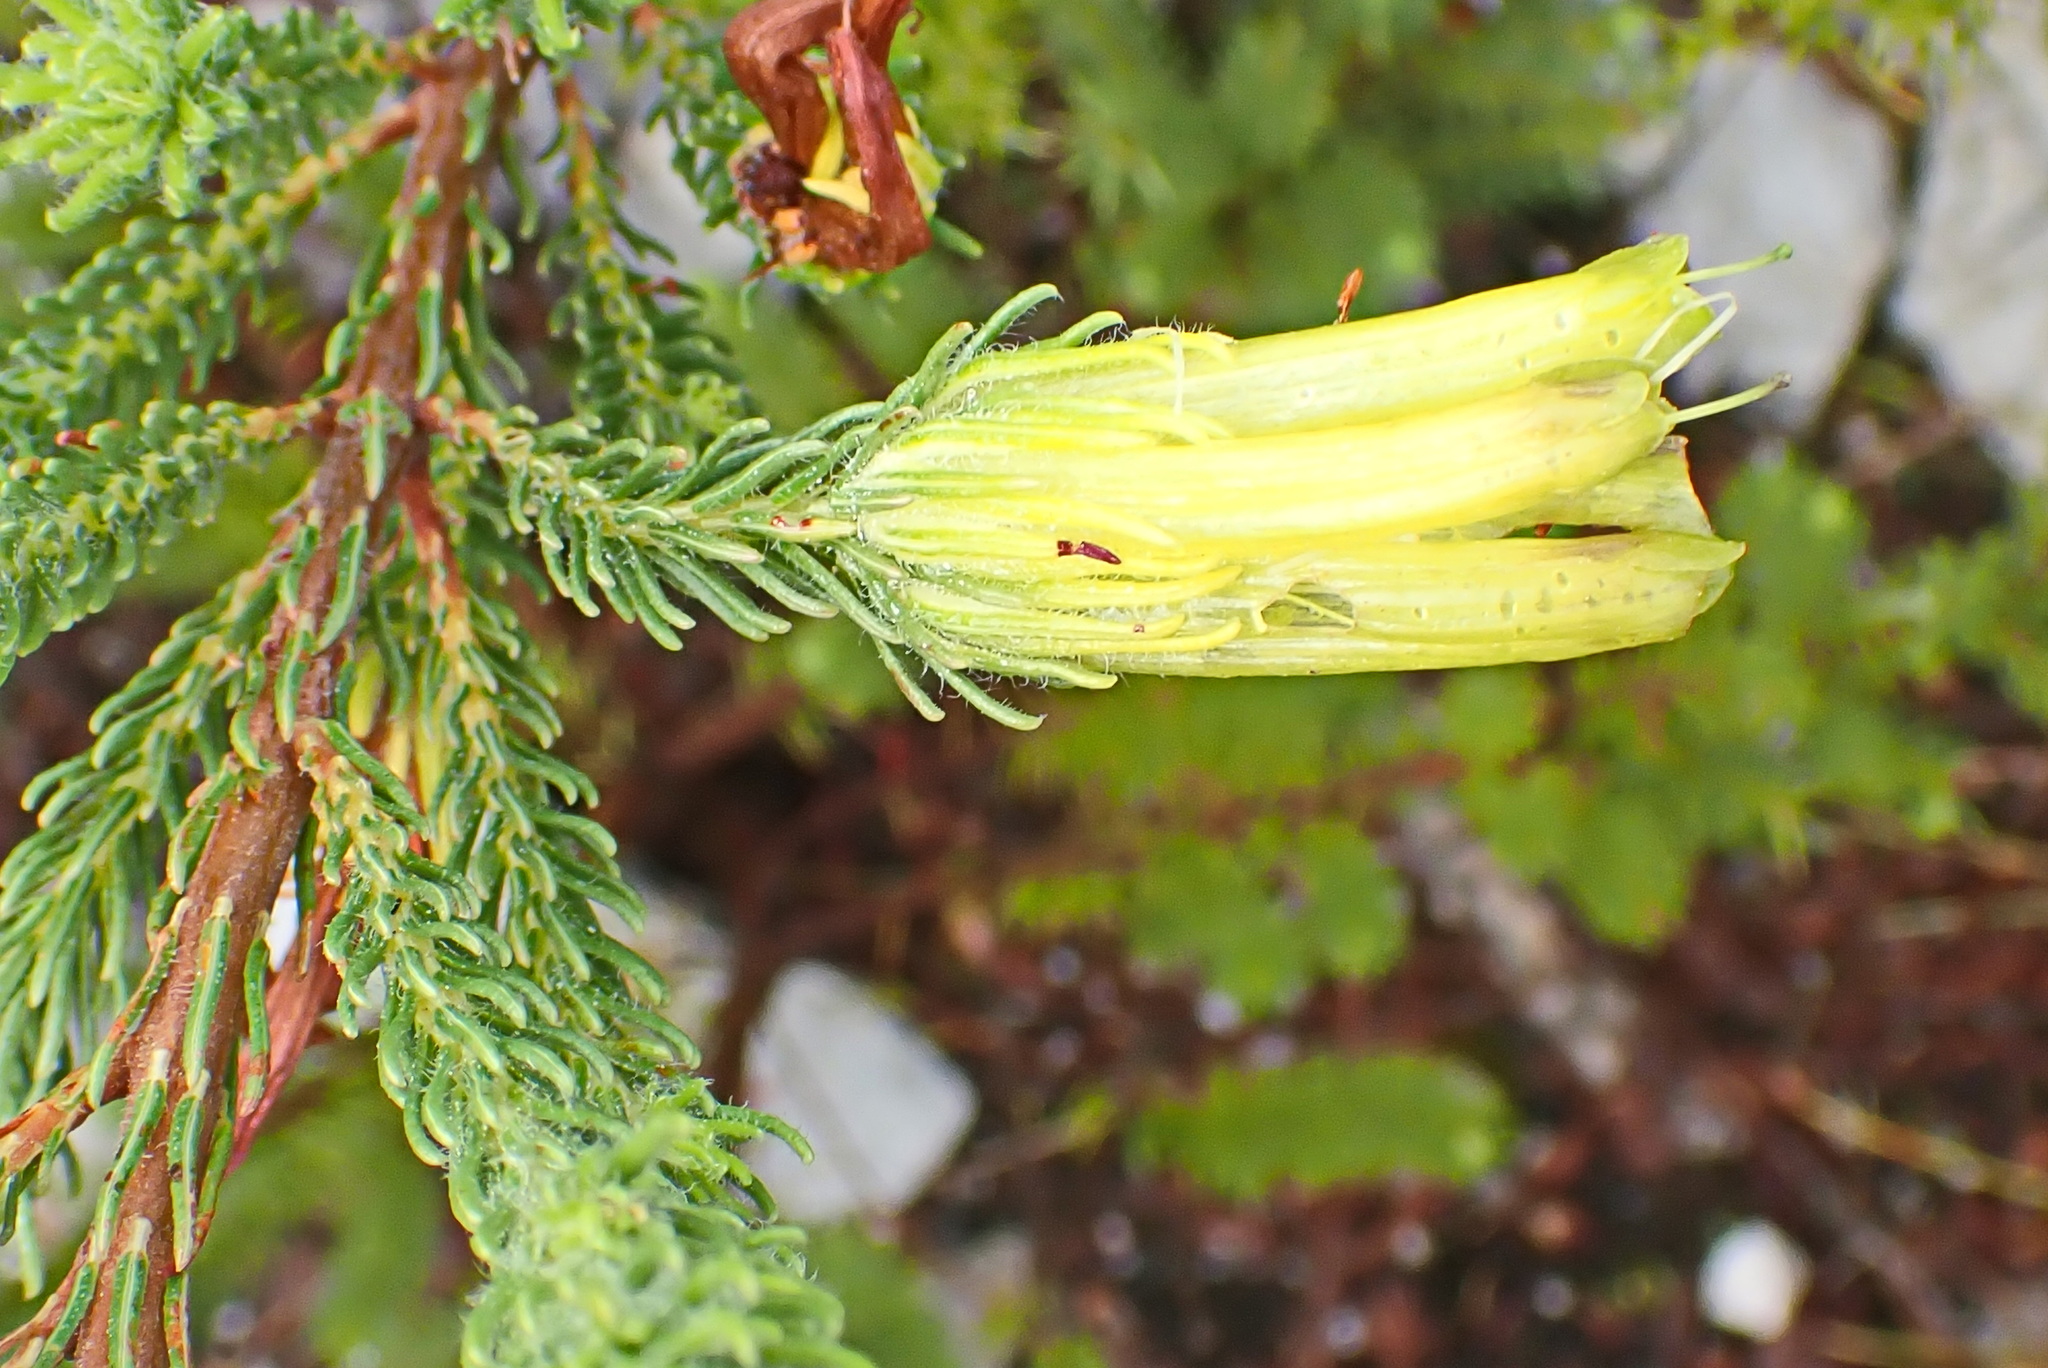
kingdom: Plantae
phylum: Tracheophyta
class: Magnoliopsida
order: Ericales
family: Ericaceae
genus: Erica
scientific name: Erica unicolor
